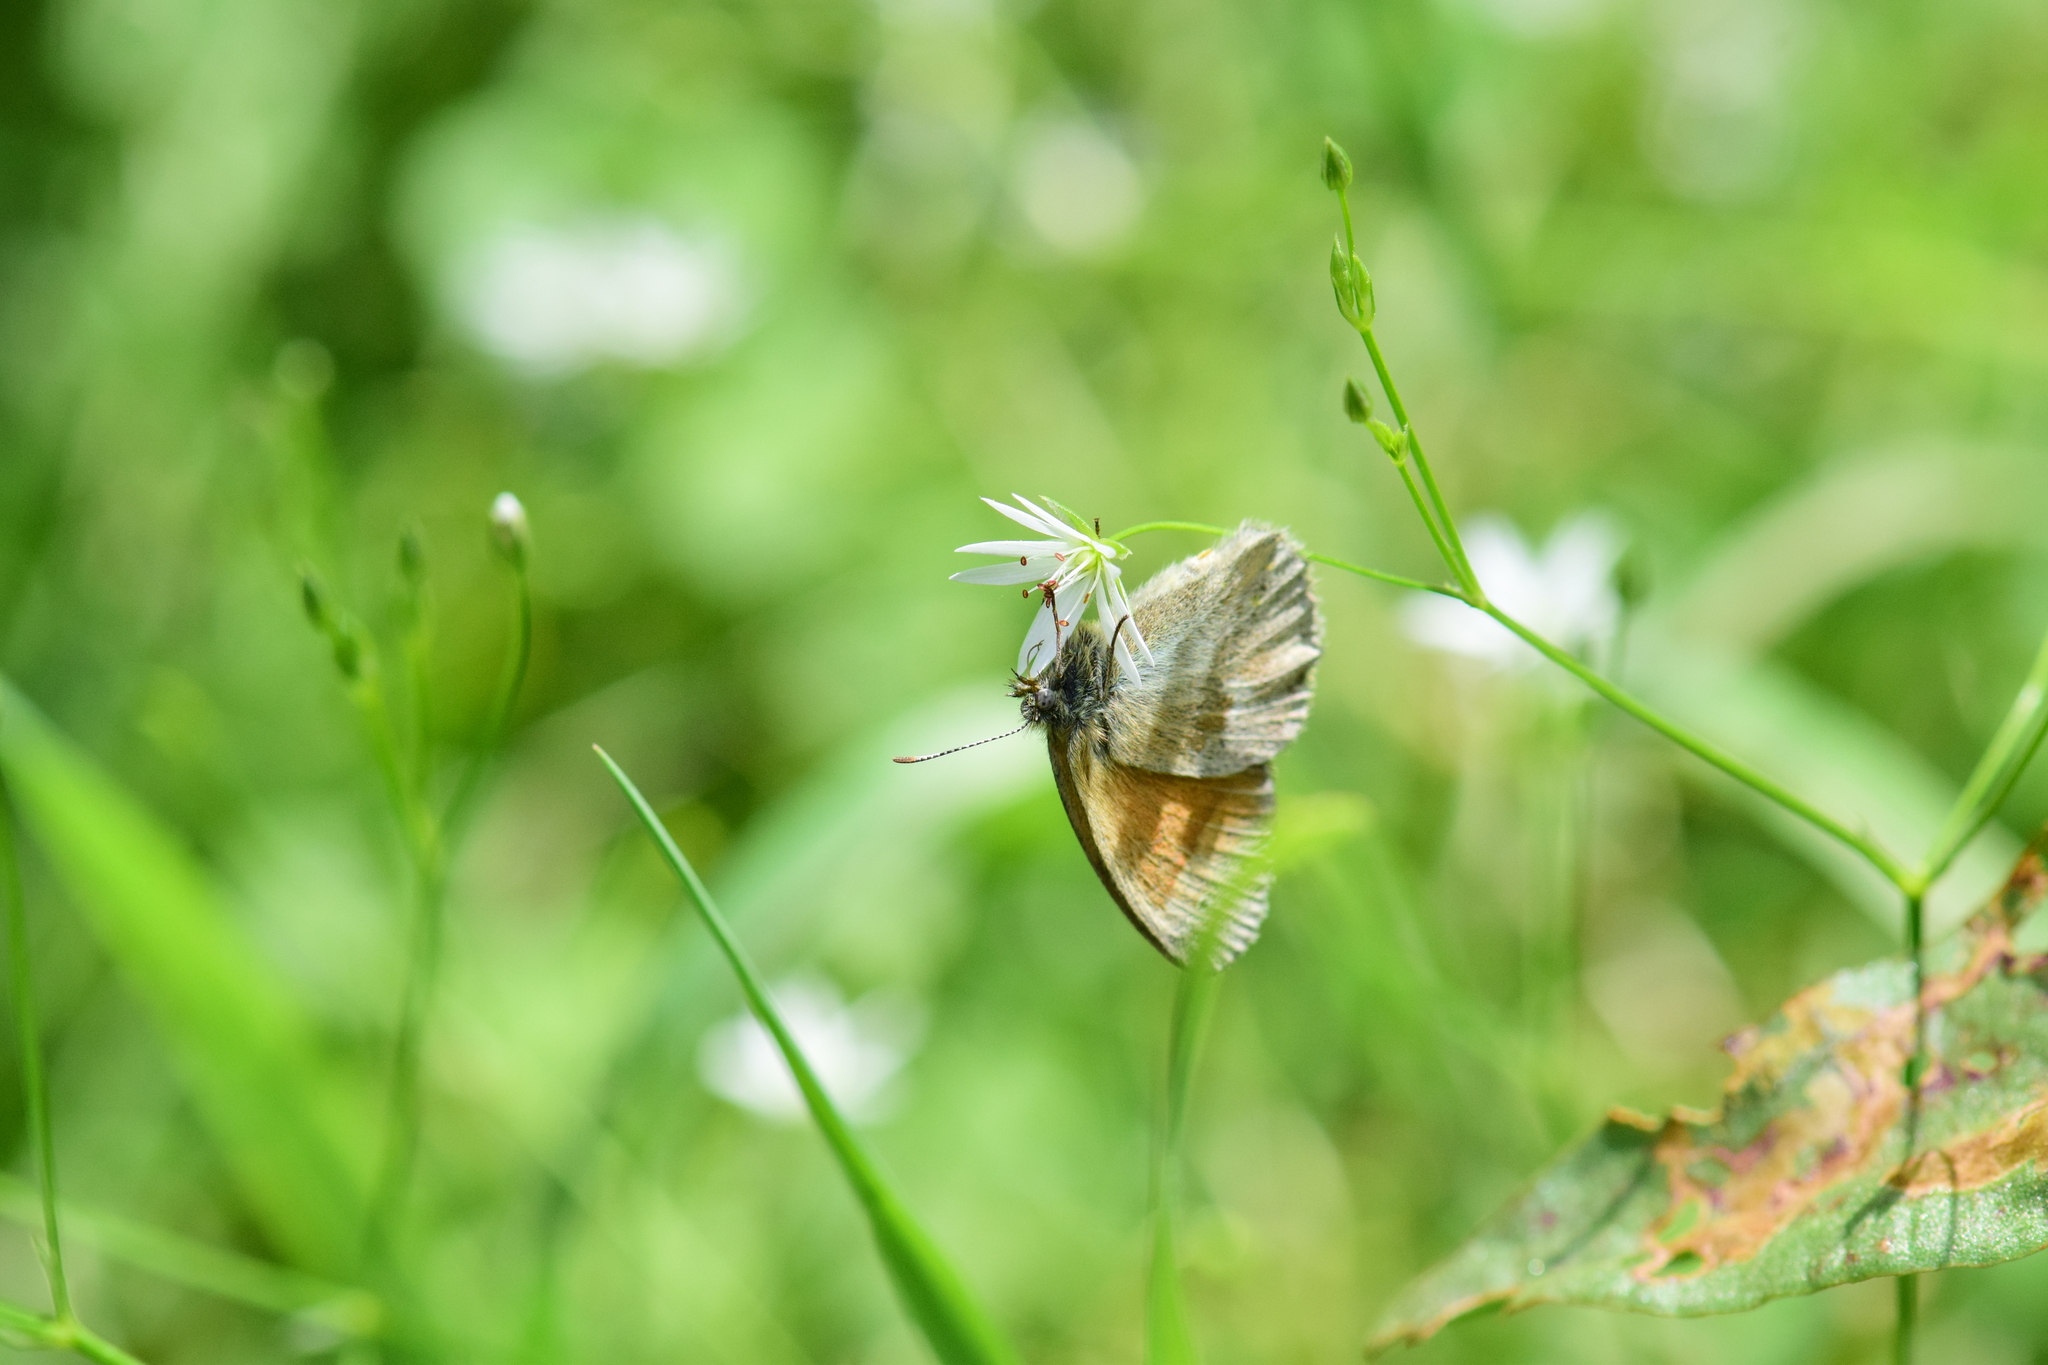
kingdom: Animalia
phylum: Arthropoda
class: Insecta
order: Lepidoptera
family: Nymphalidae
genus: Coenonympha
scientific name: Coenonympha california
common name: Common ringlet
